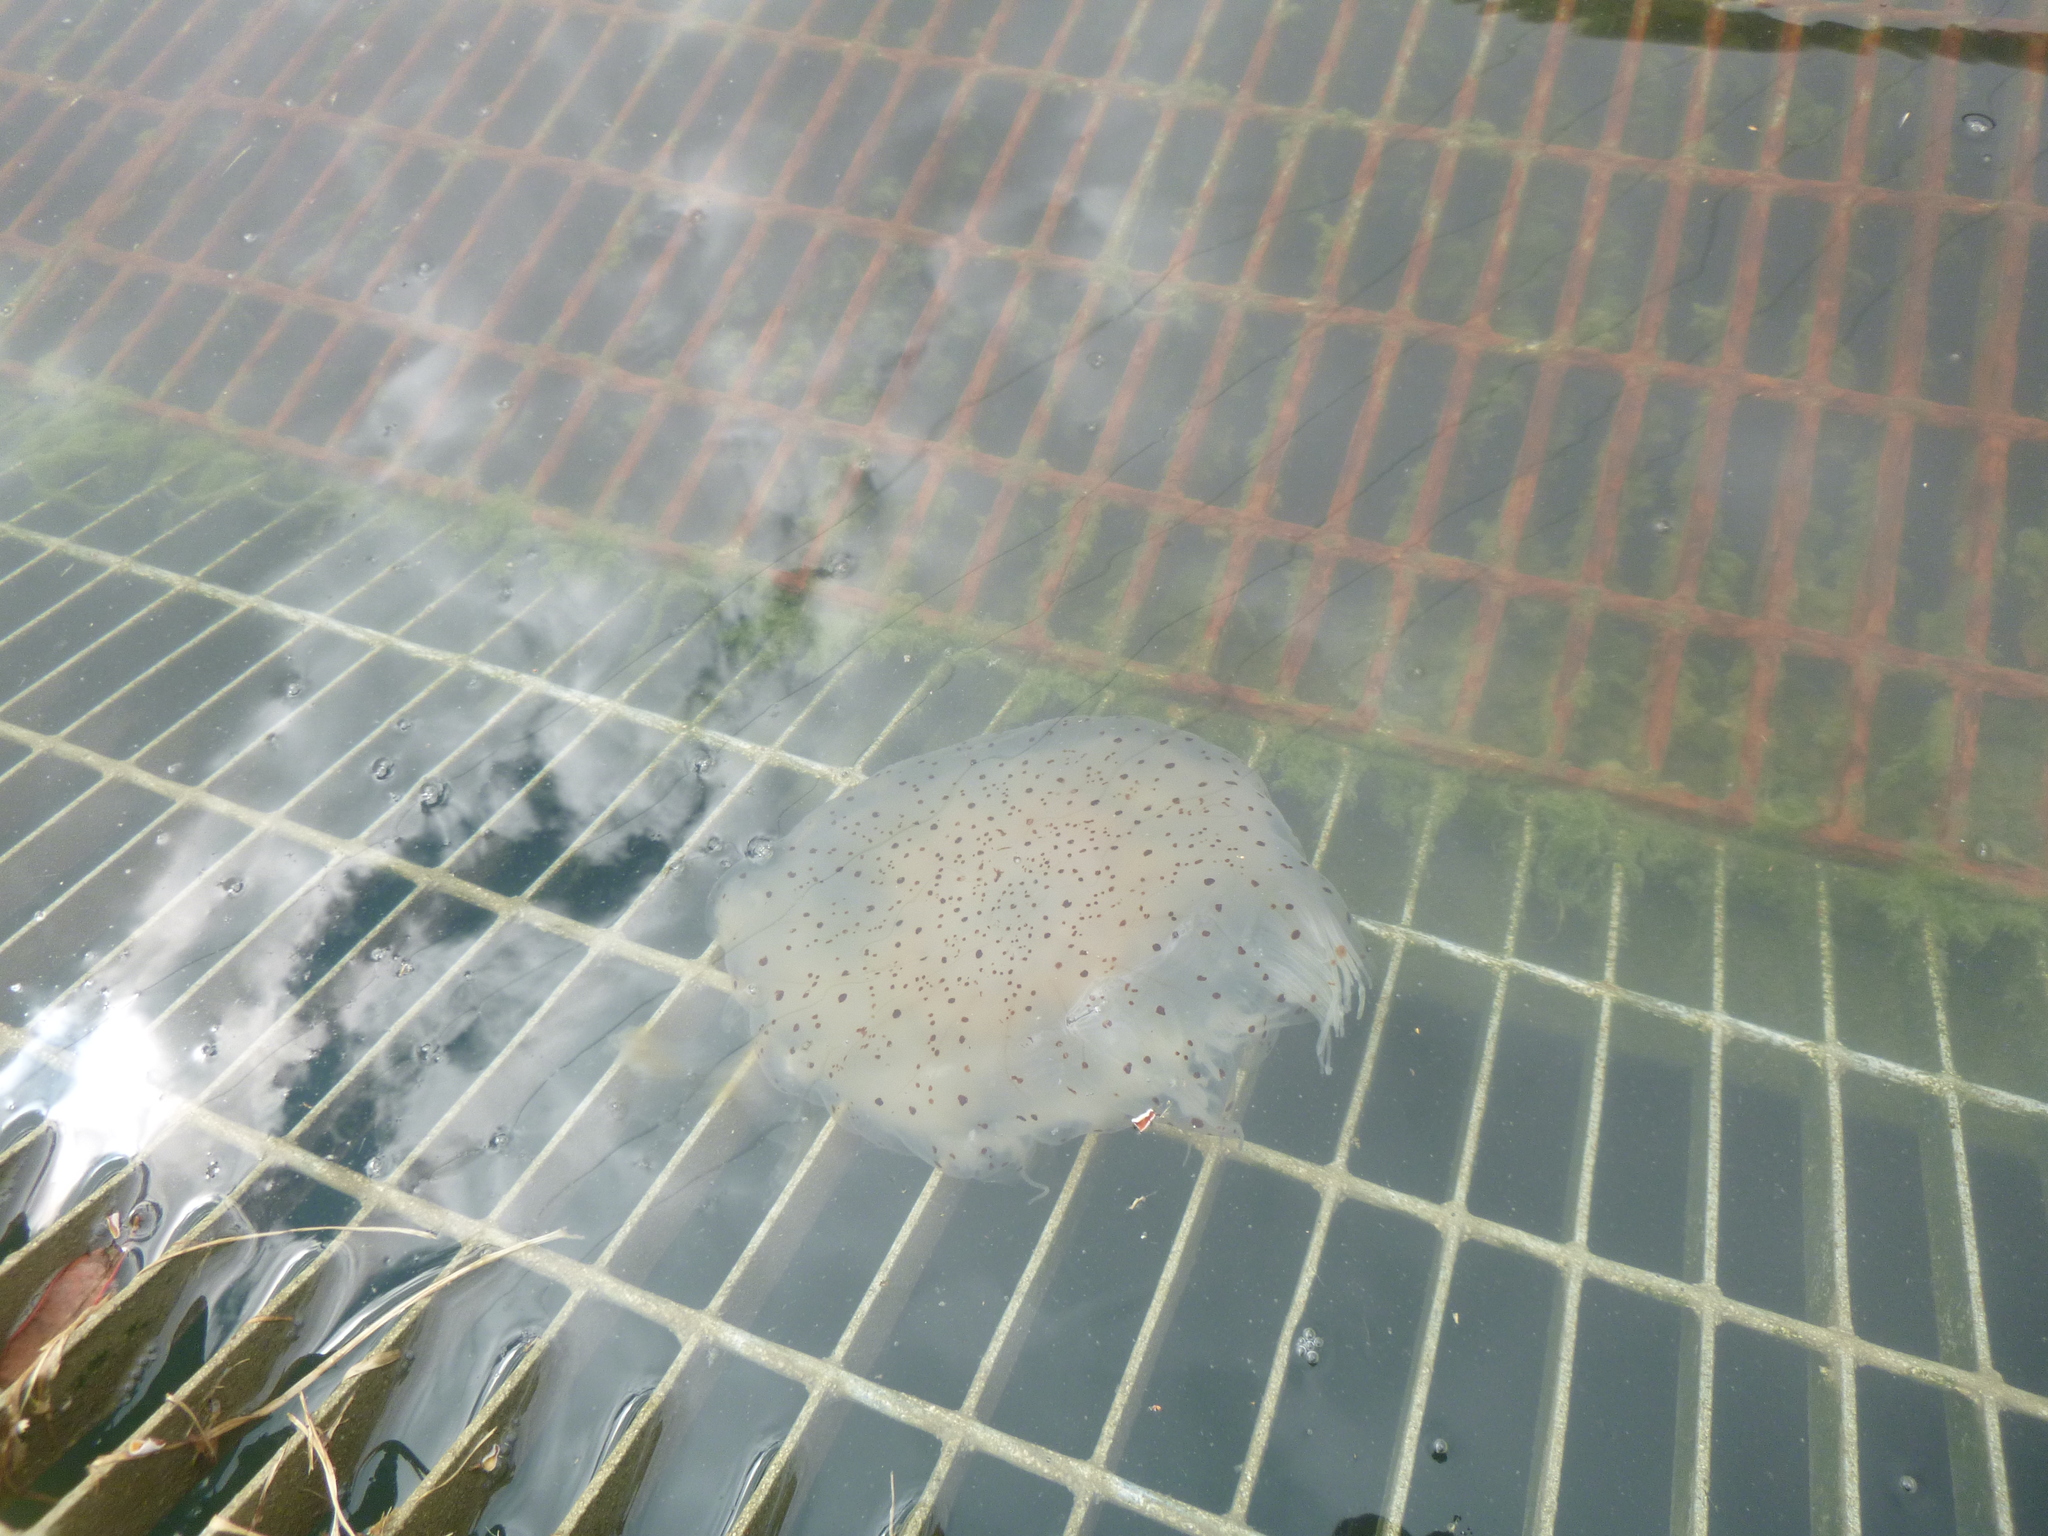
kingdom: Animalia
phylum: Cnidaria
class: Scyphozoa
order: Semaeostomeae
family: Cyaneidae
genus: Desmonema
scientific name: Desmonema gaudichaudi
